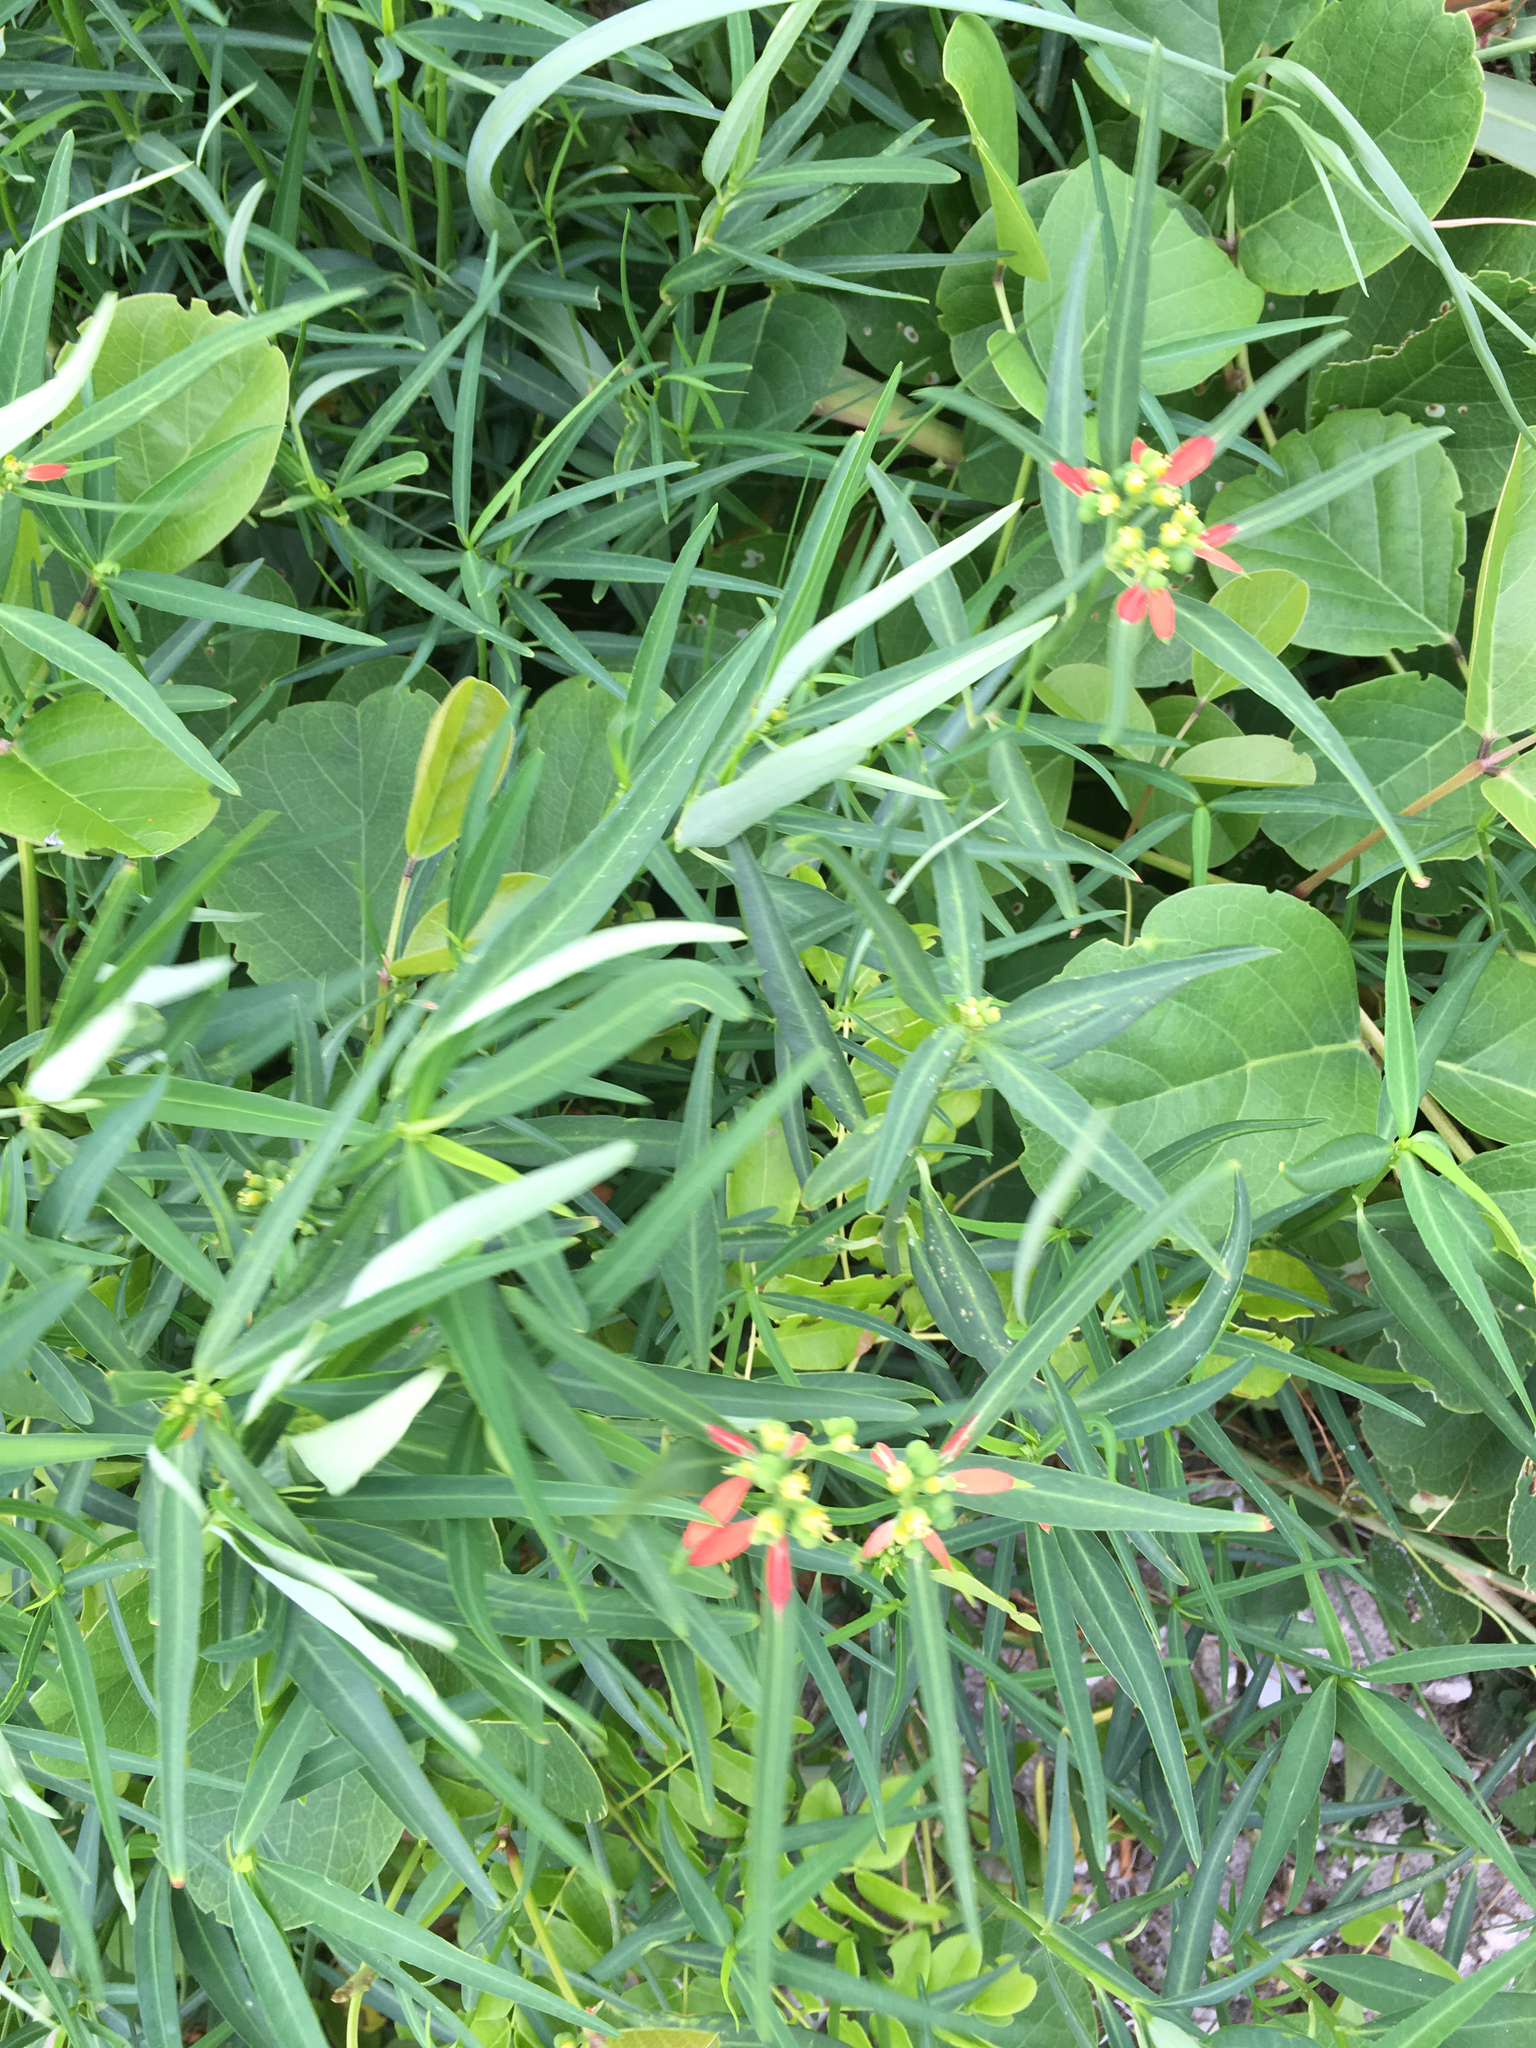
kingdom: Plantae
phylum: Tracheophyta
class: Magnoliopsida
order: Malpighiales
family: Euphorbiaceae
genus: Euphorbia
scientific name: Euphorbia heterophylla
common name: Mexican fireplant
